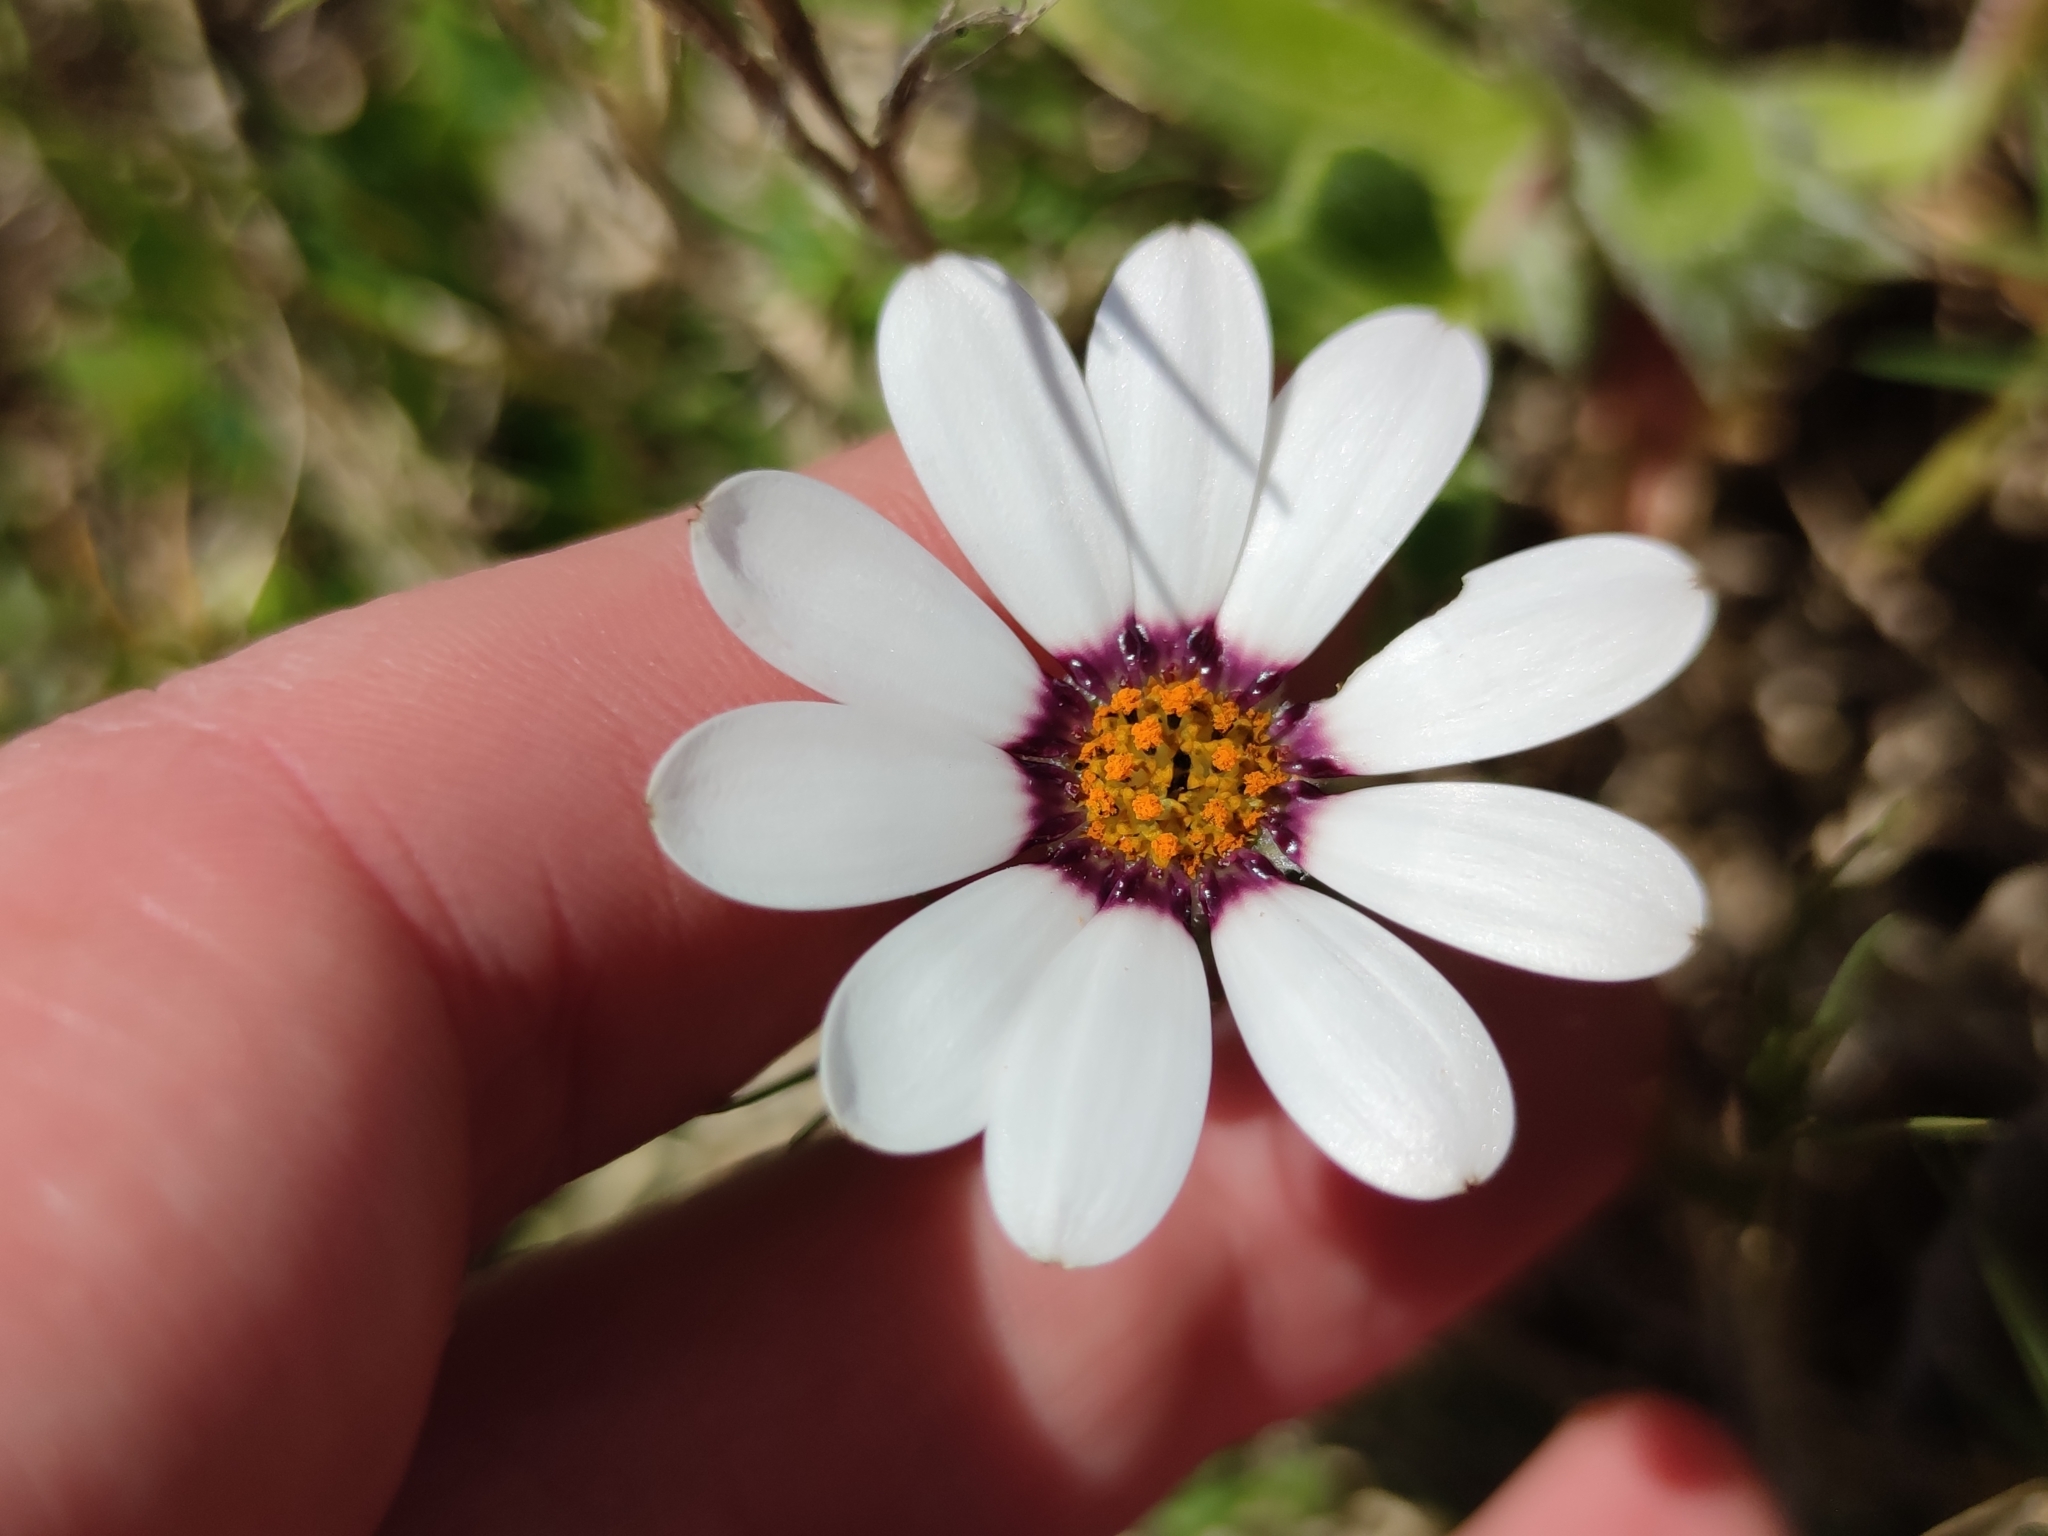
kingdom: Plantae
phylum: Tracheophyta
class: Magnoliopsida
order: Asterales
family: Asteraceae
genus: Dimorphotheca
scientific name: Dimorphotheca pluvialis
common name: Weather prophet
